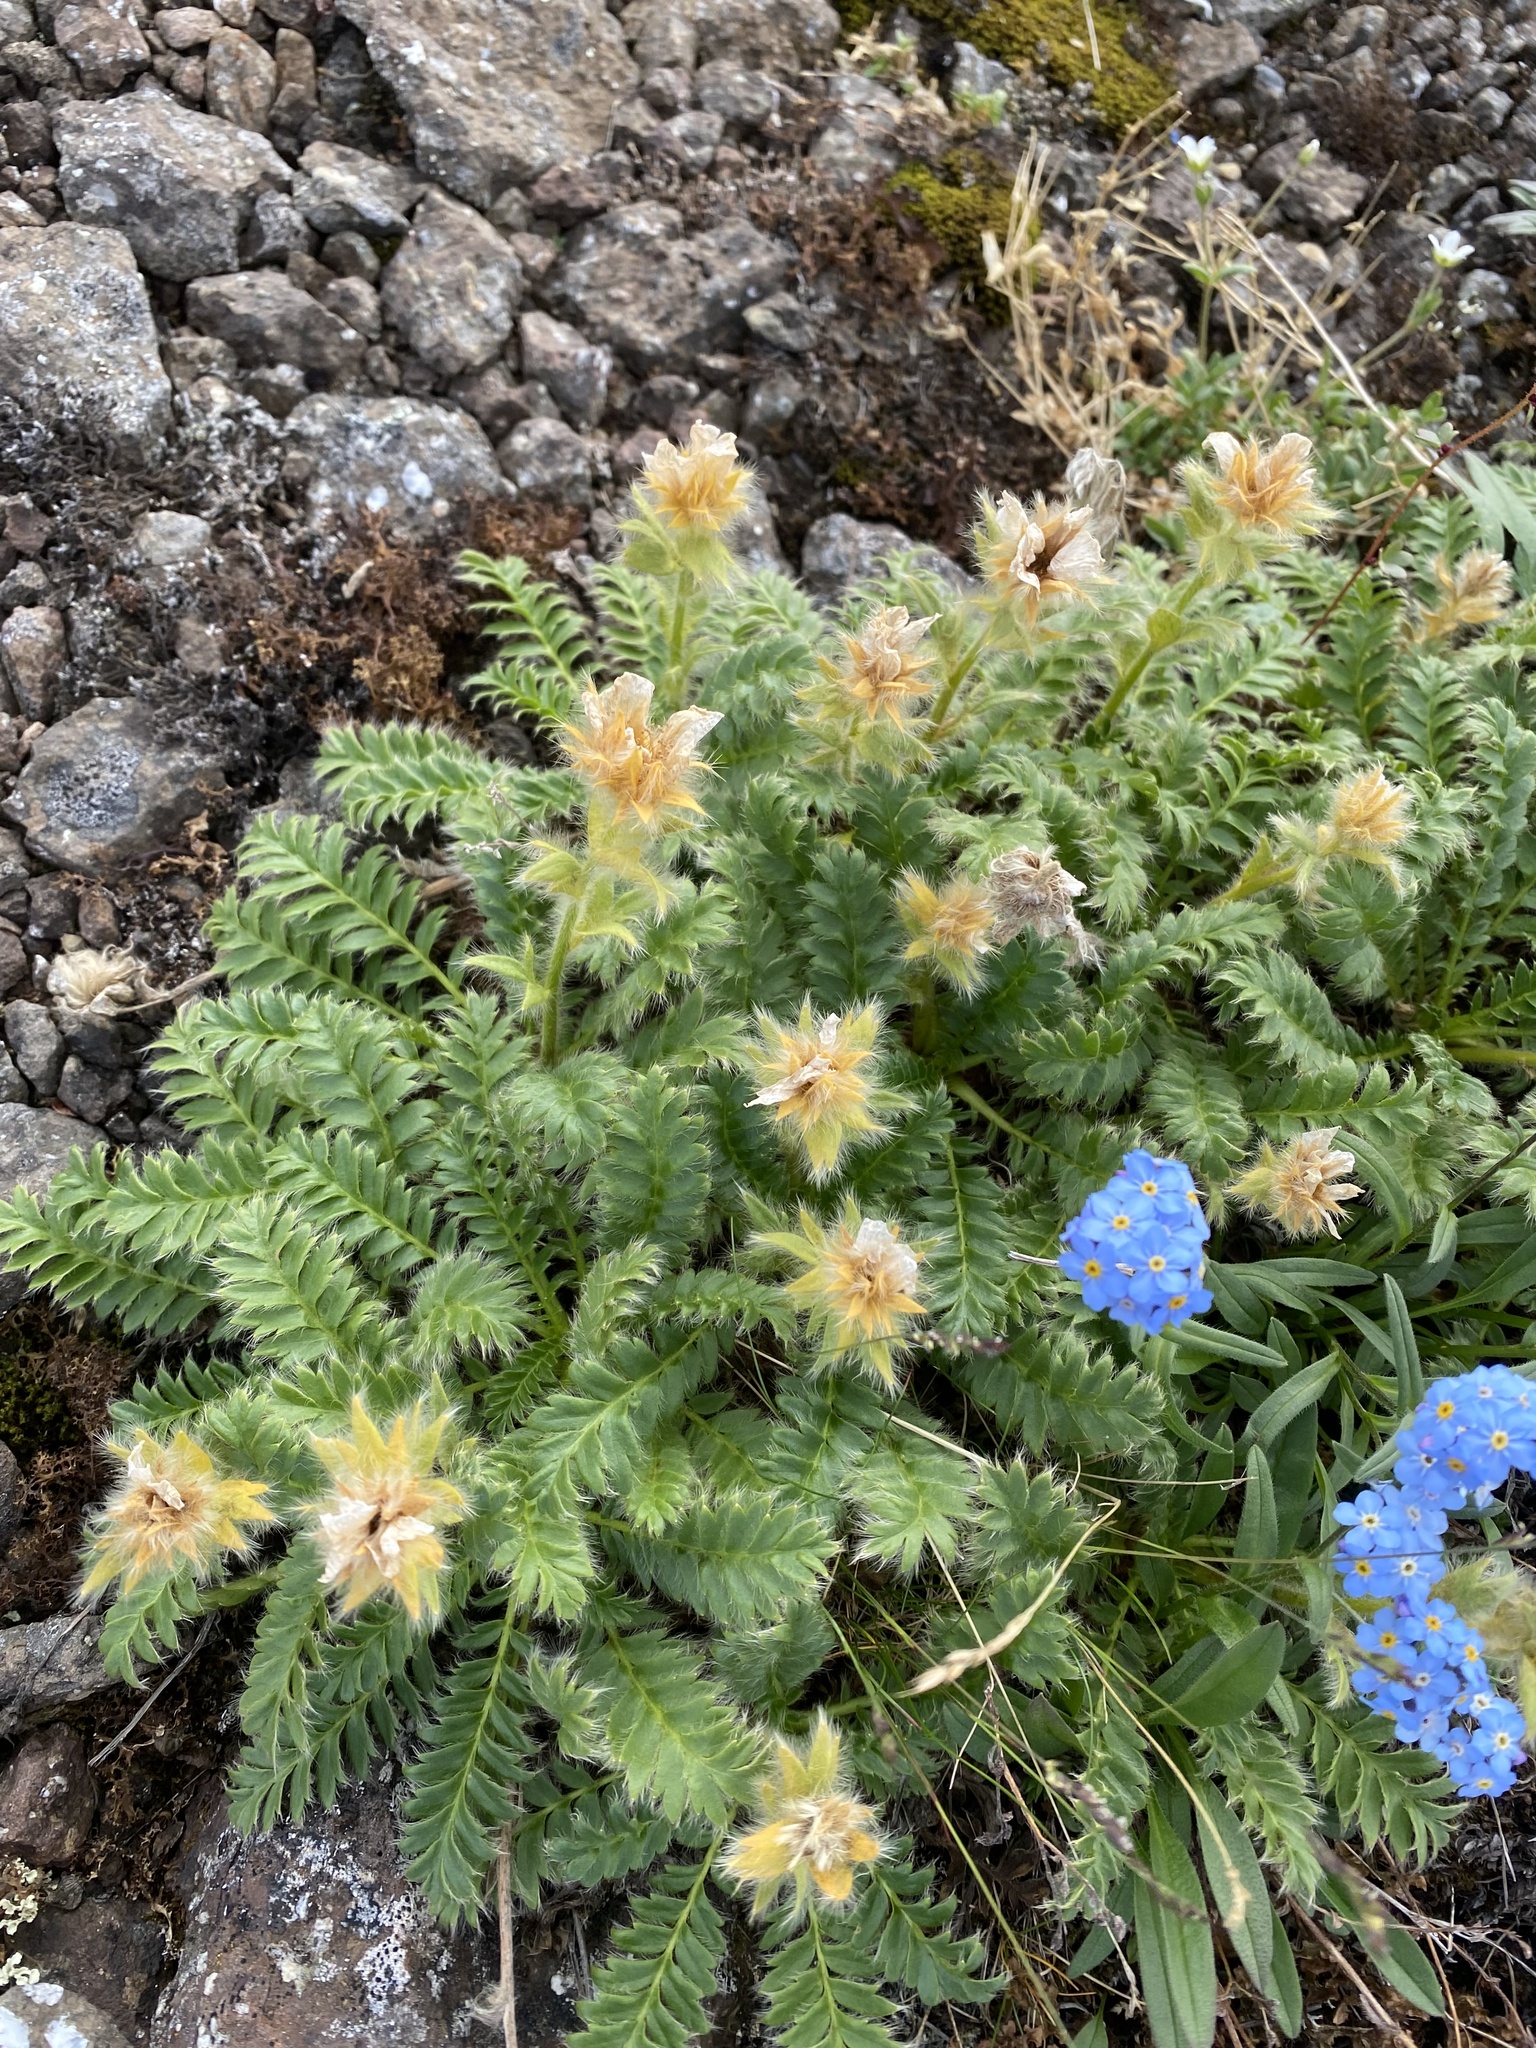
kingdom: Plantae
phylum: Tracheophyta
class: Magnoliopsida
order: Rosales
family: Rosaceae
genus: Geum
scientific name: Geum glaciale
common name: Glacier avens
